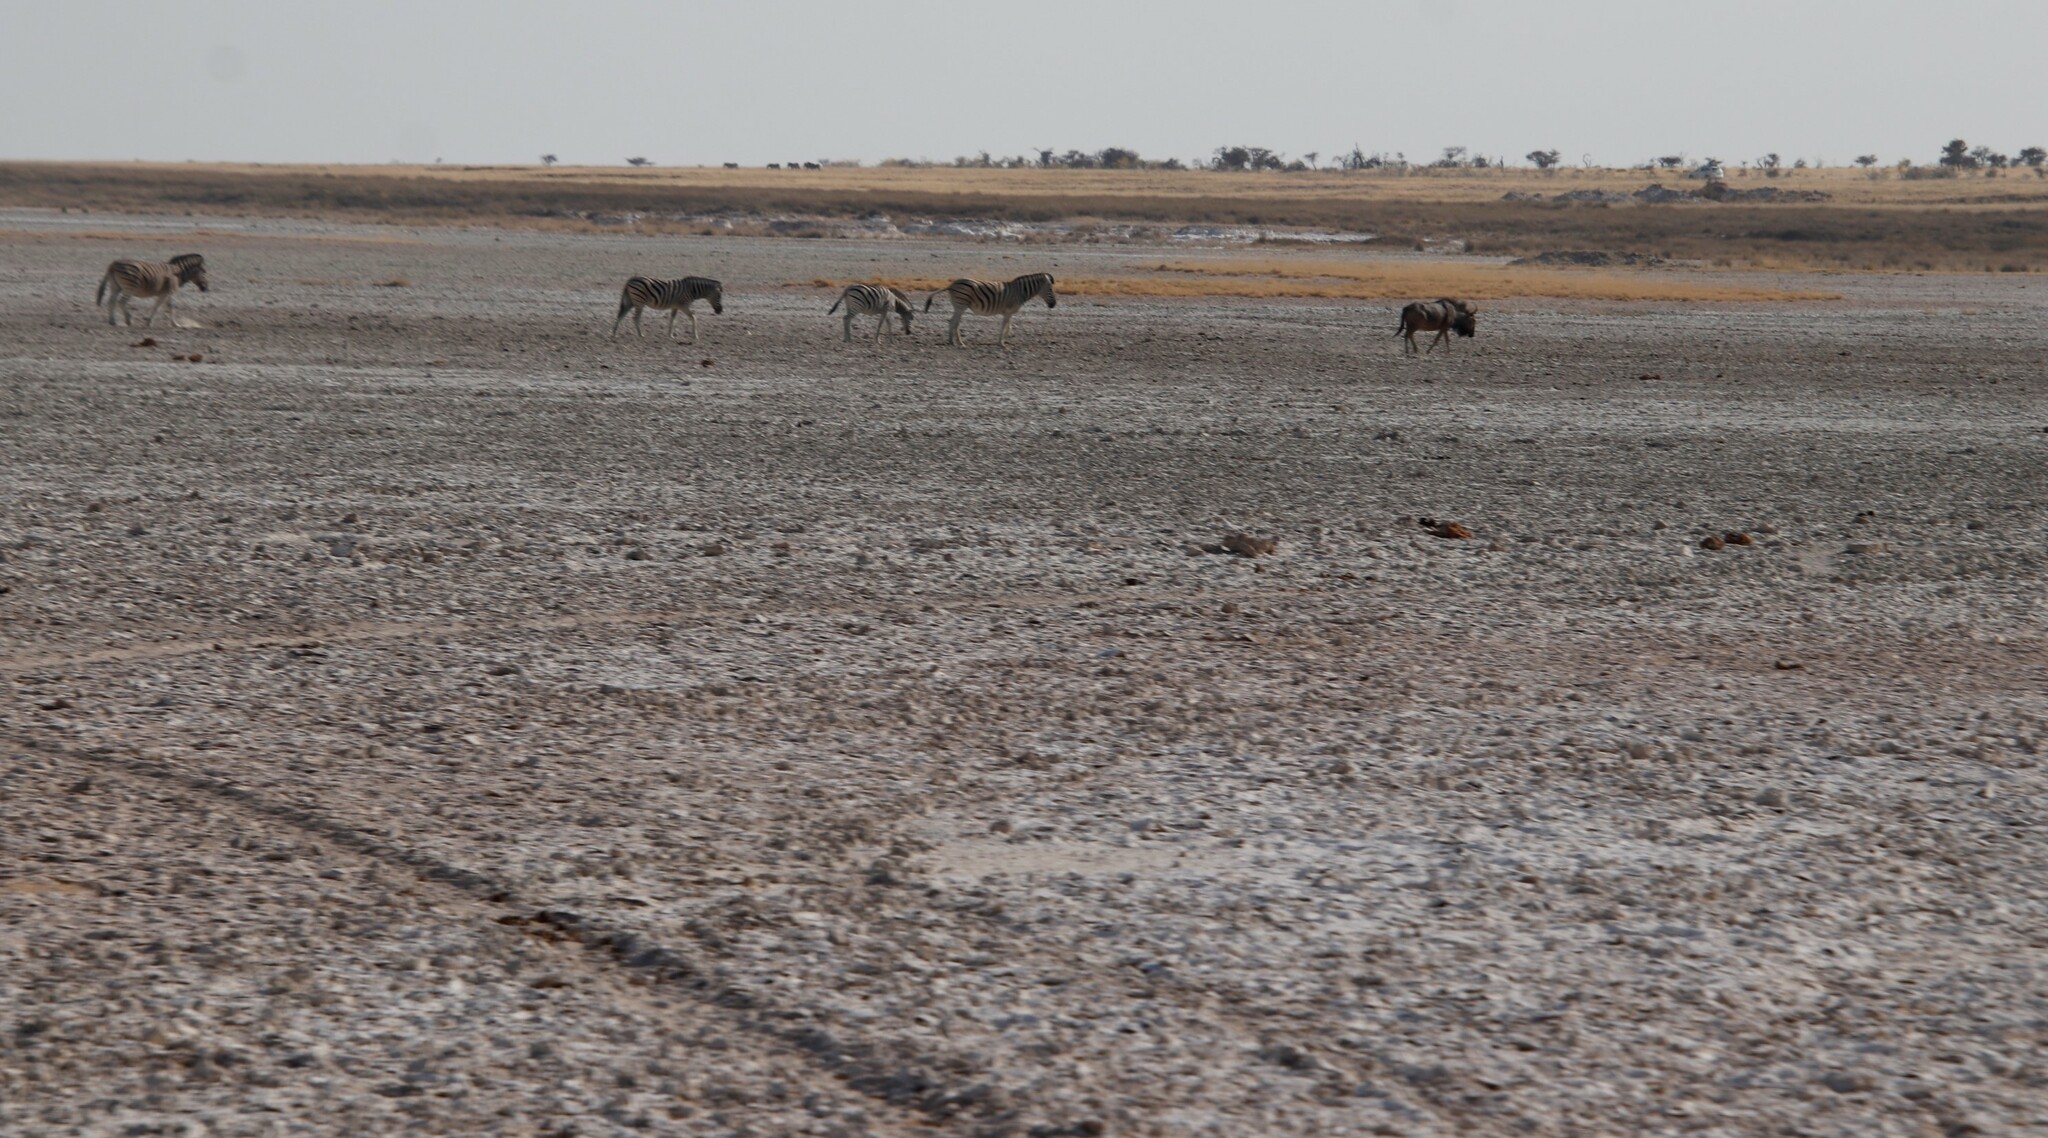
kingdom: Animalia
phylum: Chordata
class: Mammalia
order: Perissodactyla
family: Equidae
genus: Equus
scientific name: Equus quagga
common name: Plains zebra
